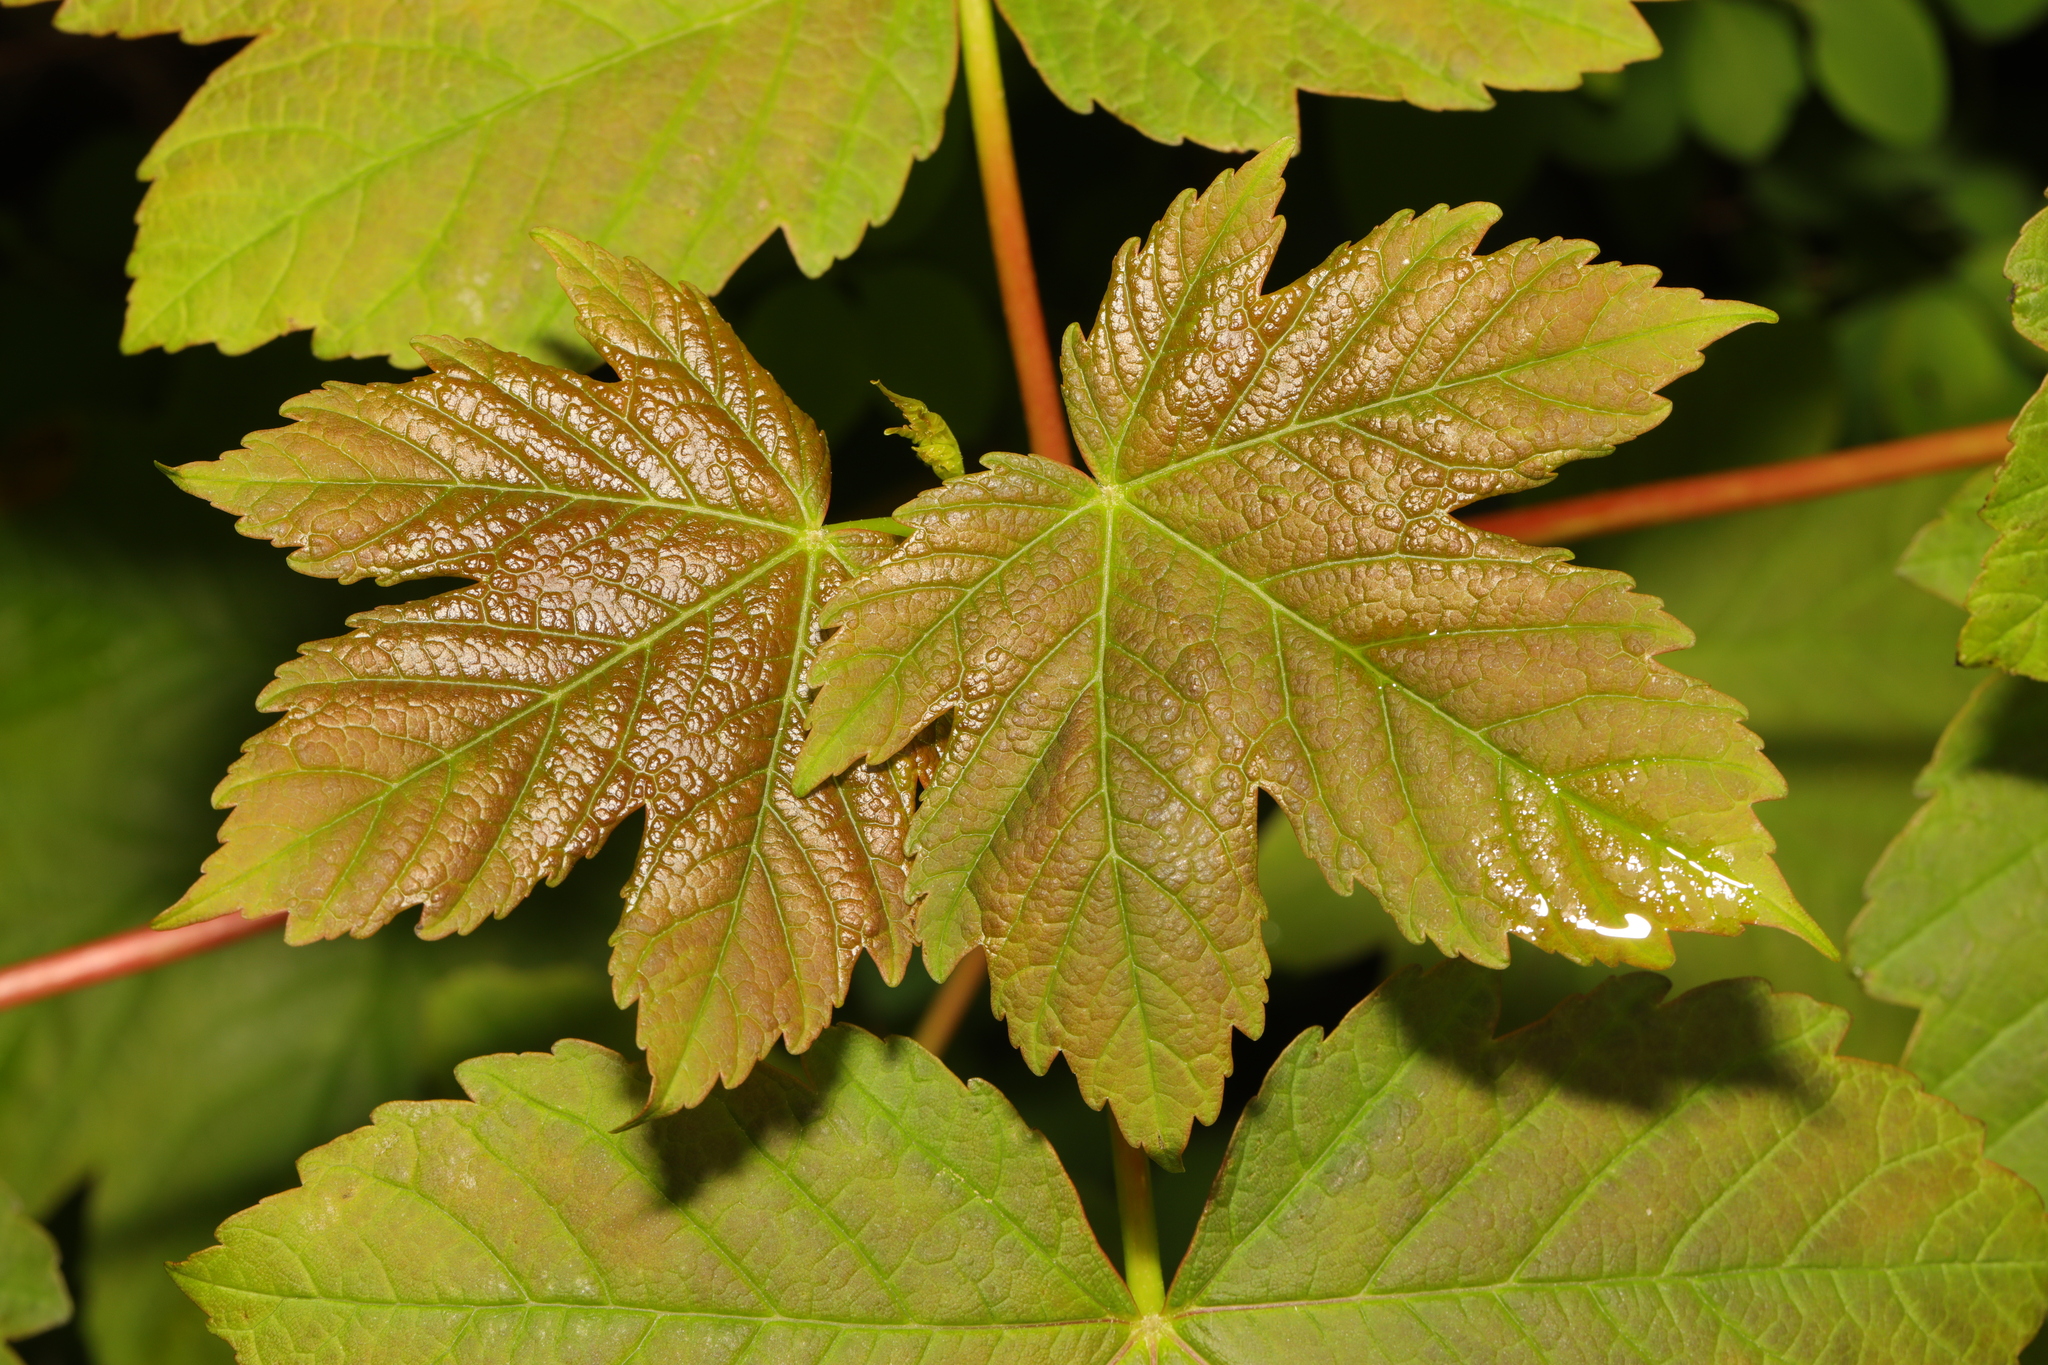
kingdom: Plantae
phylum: Tracheophyta
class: Magnoliopsida
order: Sapindales
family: Sapindaceae
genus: Acer
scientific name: Acer pseudoplatanus
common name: Sycamore
